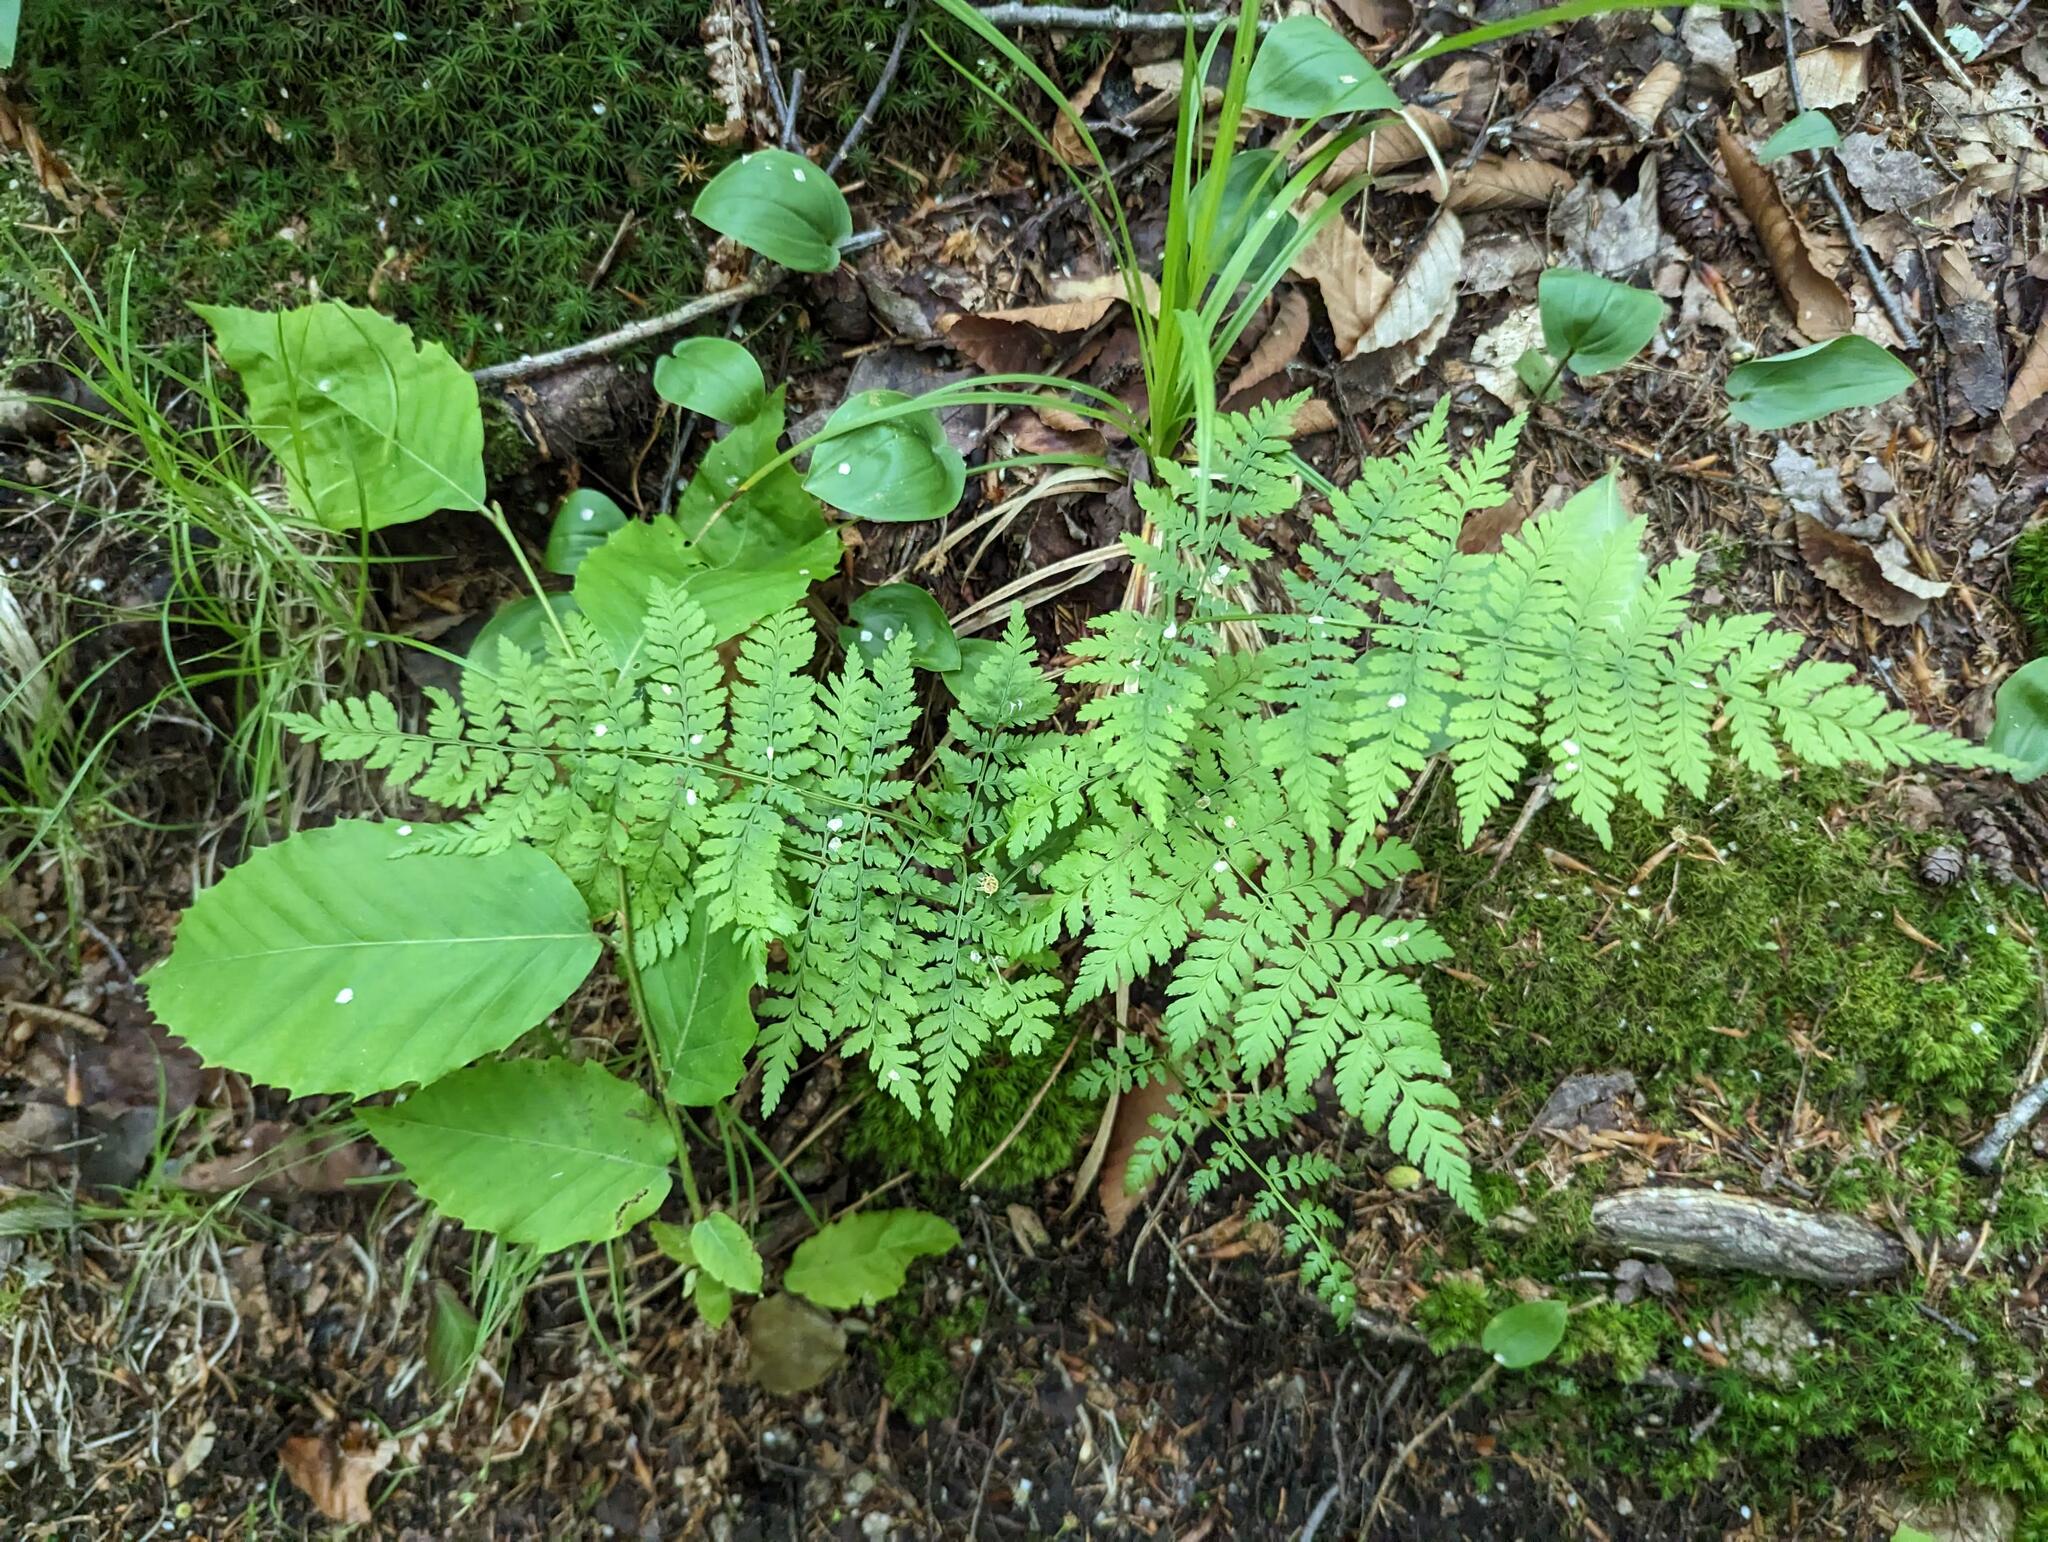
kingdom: Plantae
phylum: Tracheophyta
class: Polypodiopsida
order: Polypodiales
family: Dryopteridaceae
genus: Dryopteris
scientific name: Dryopteris intermedia
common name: Evergreen wood fern
